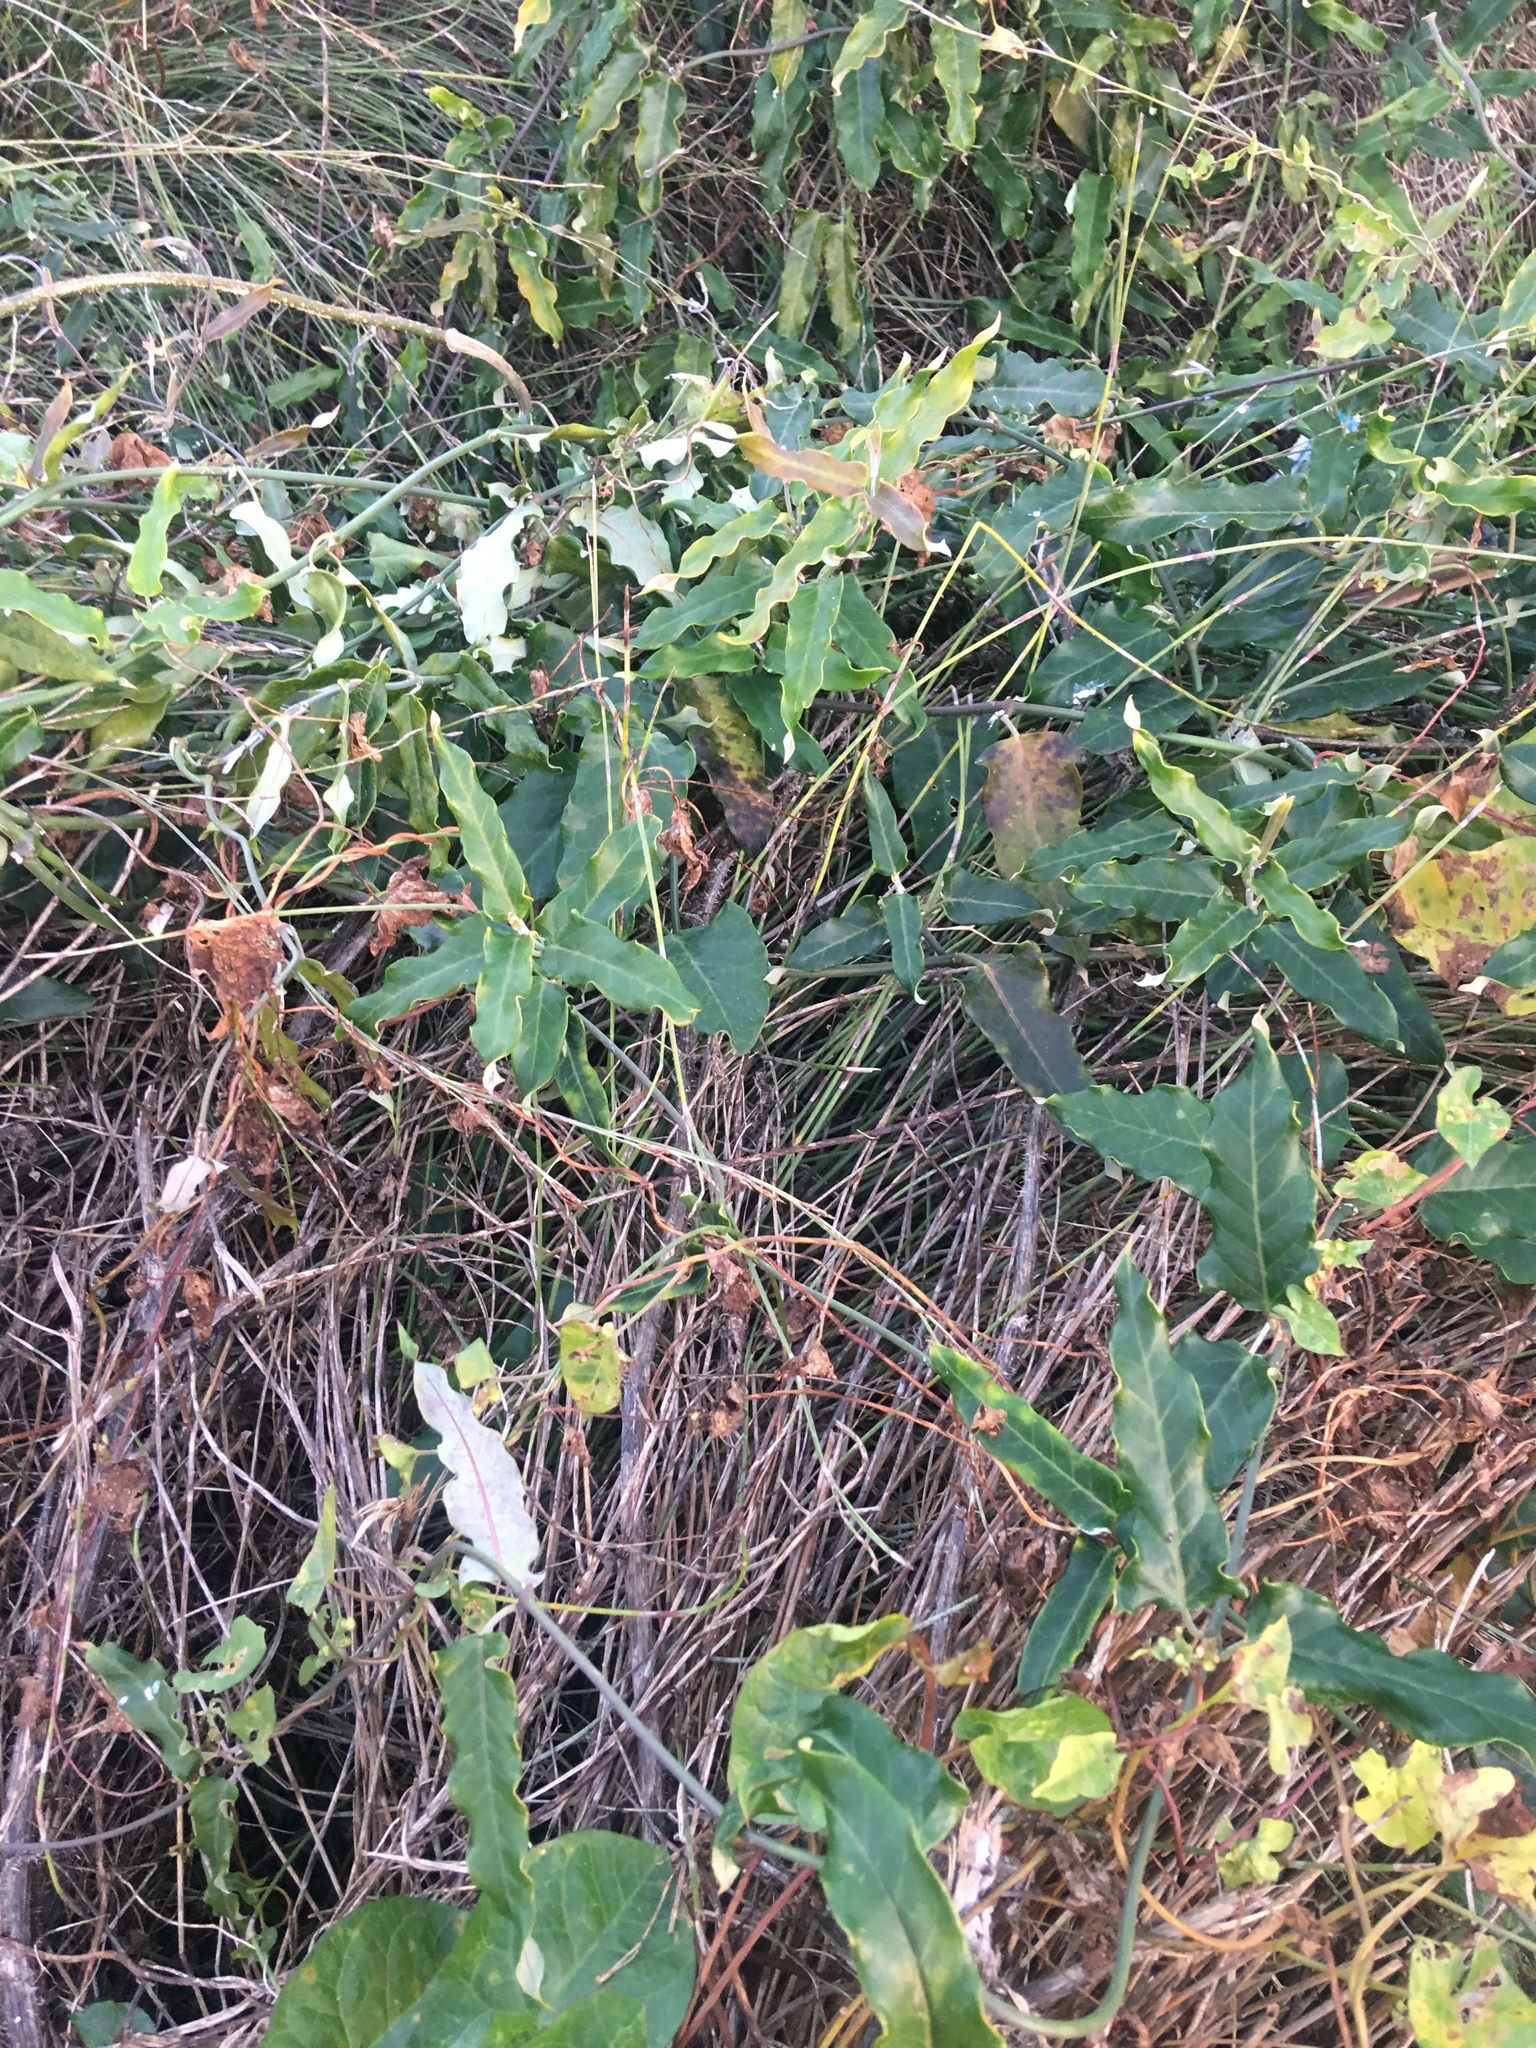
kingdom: Plantae
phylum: Tracheophyta
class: Magnoliopsida
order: Gentianales
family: Apocynaceae
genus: Araujia
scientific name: Araujia sericifera
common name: White bladderflower
